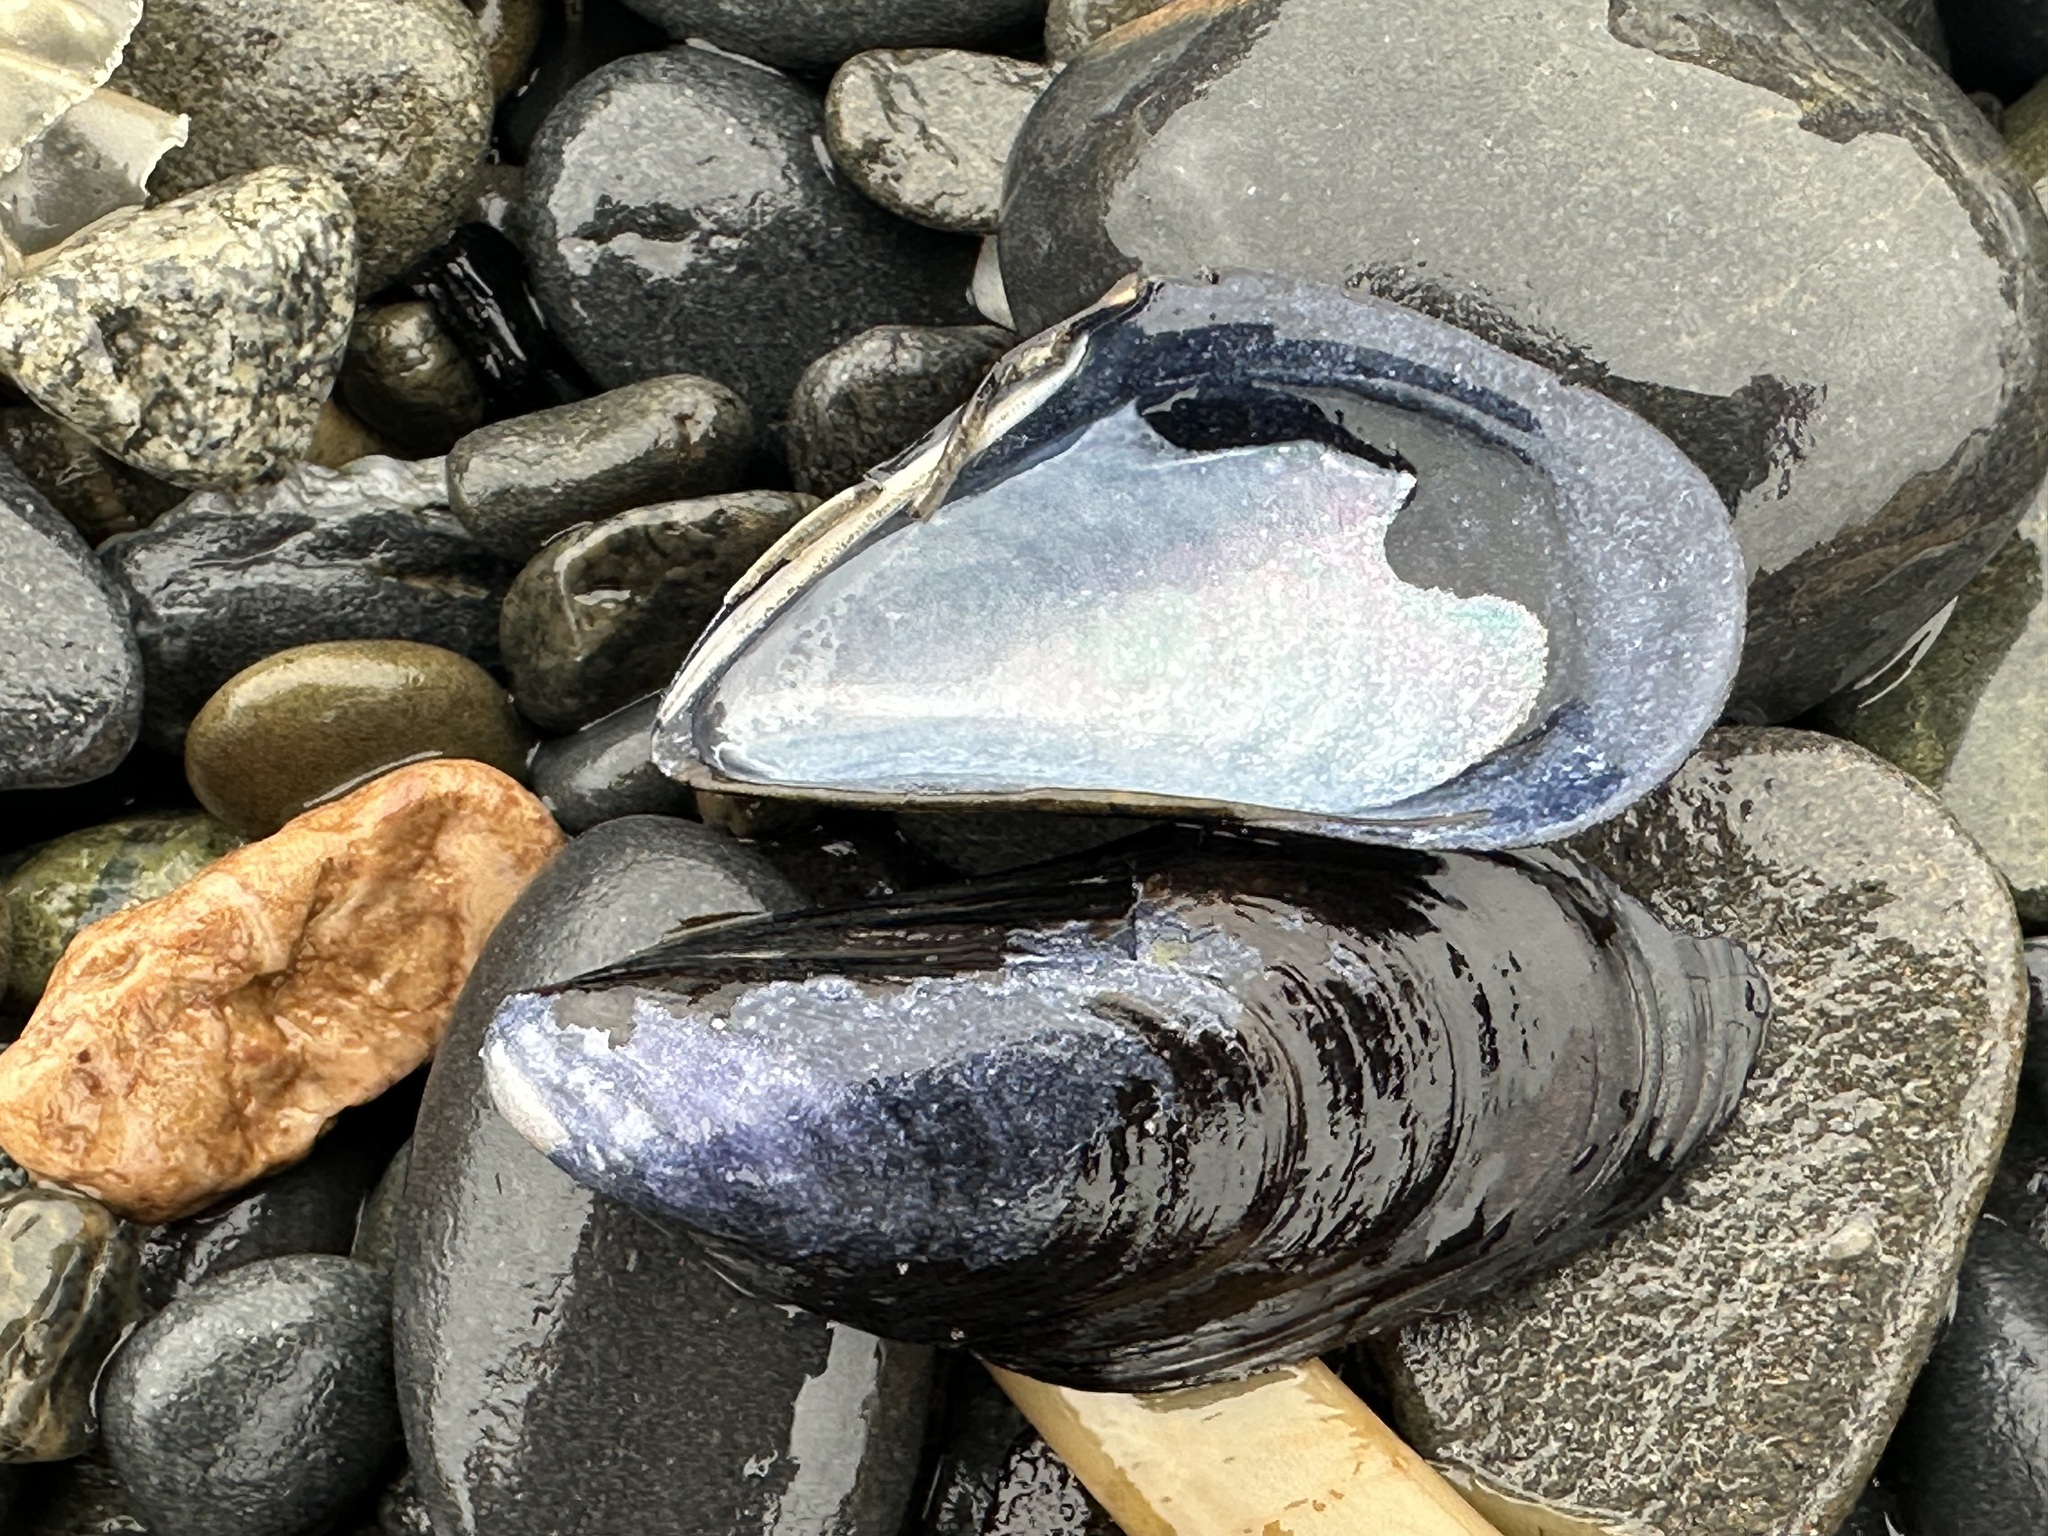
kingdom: Animalia
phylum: Mollusca
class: Bivalvia
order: Mytilida
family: Mytilidae
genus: Mytilus
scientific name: Mytilus trossulus
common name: Northern blue mussel
